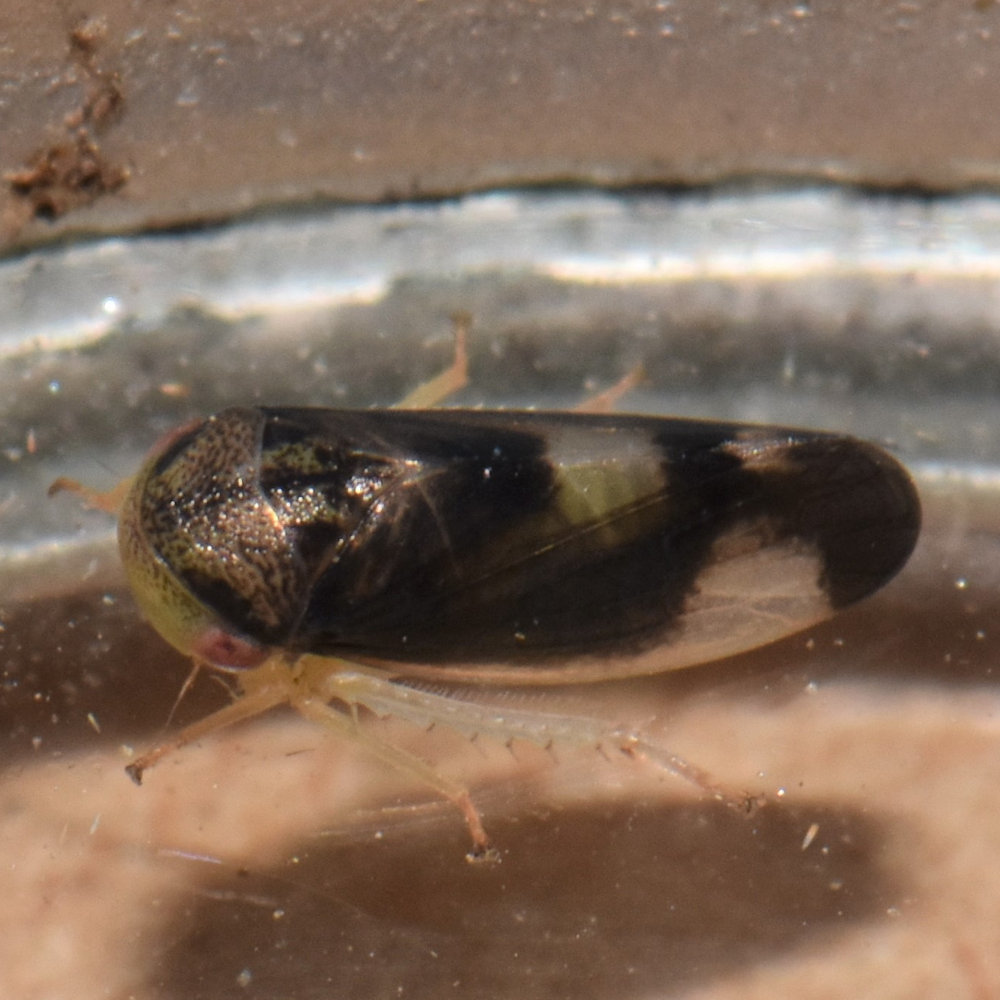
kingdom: Animalia
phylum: Arthropoda
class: Insecta
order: Hemiptera
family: Cicadellidae
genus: Pediopsoides
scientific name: Pediopsoides distinctus
